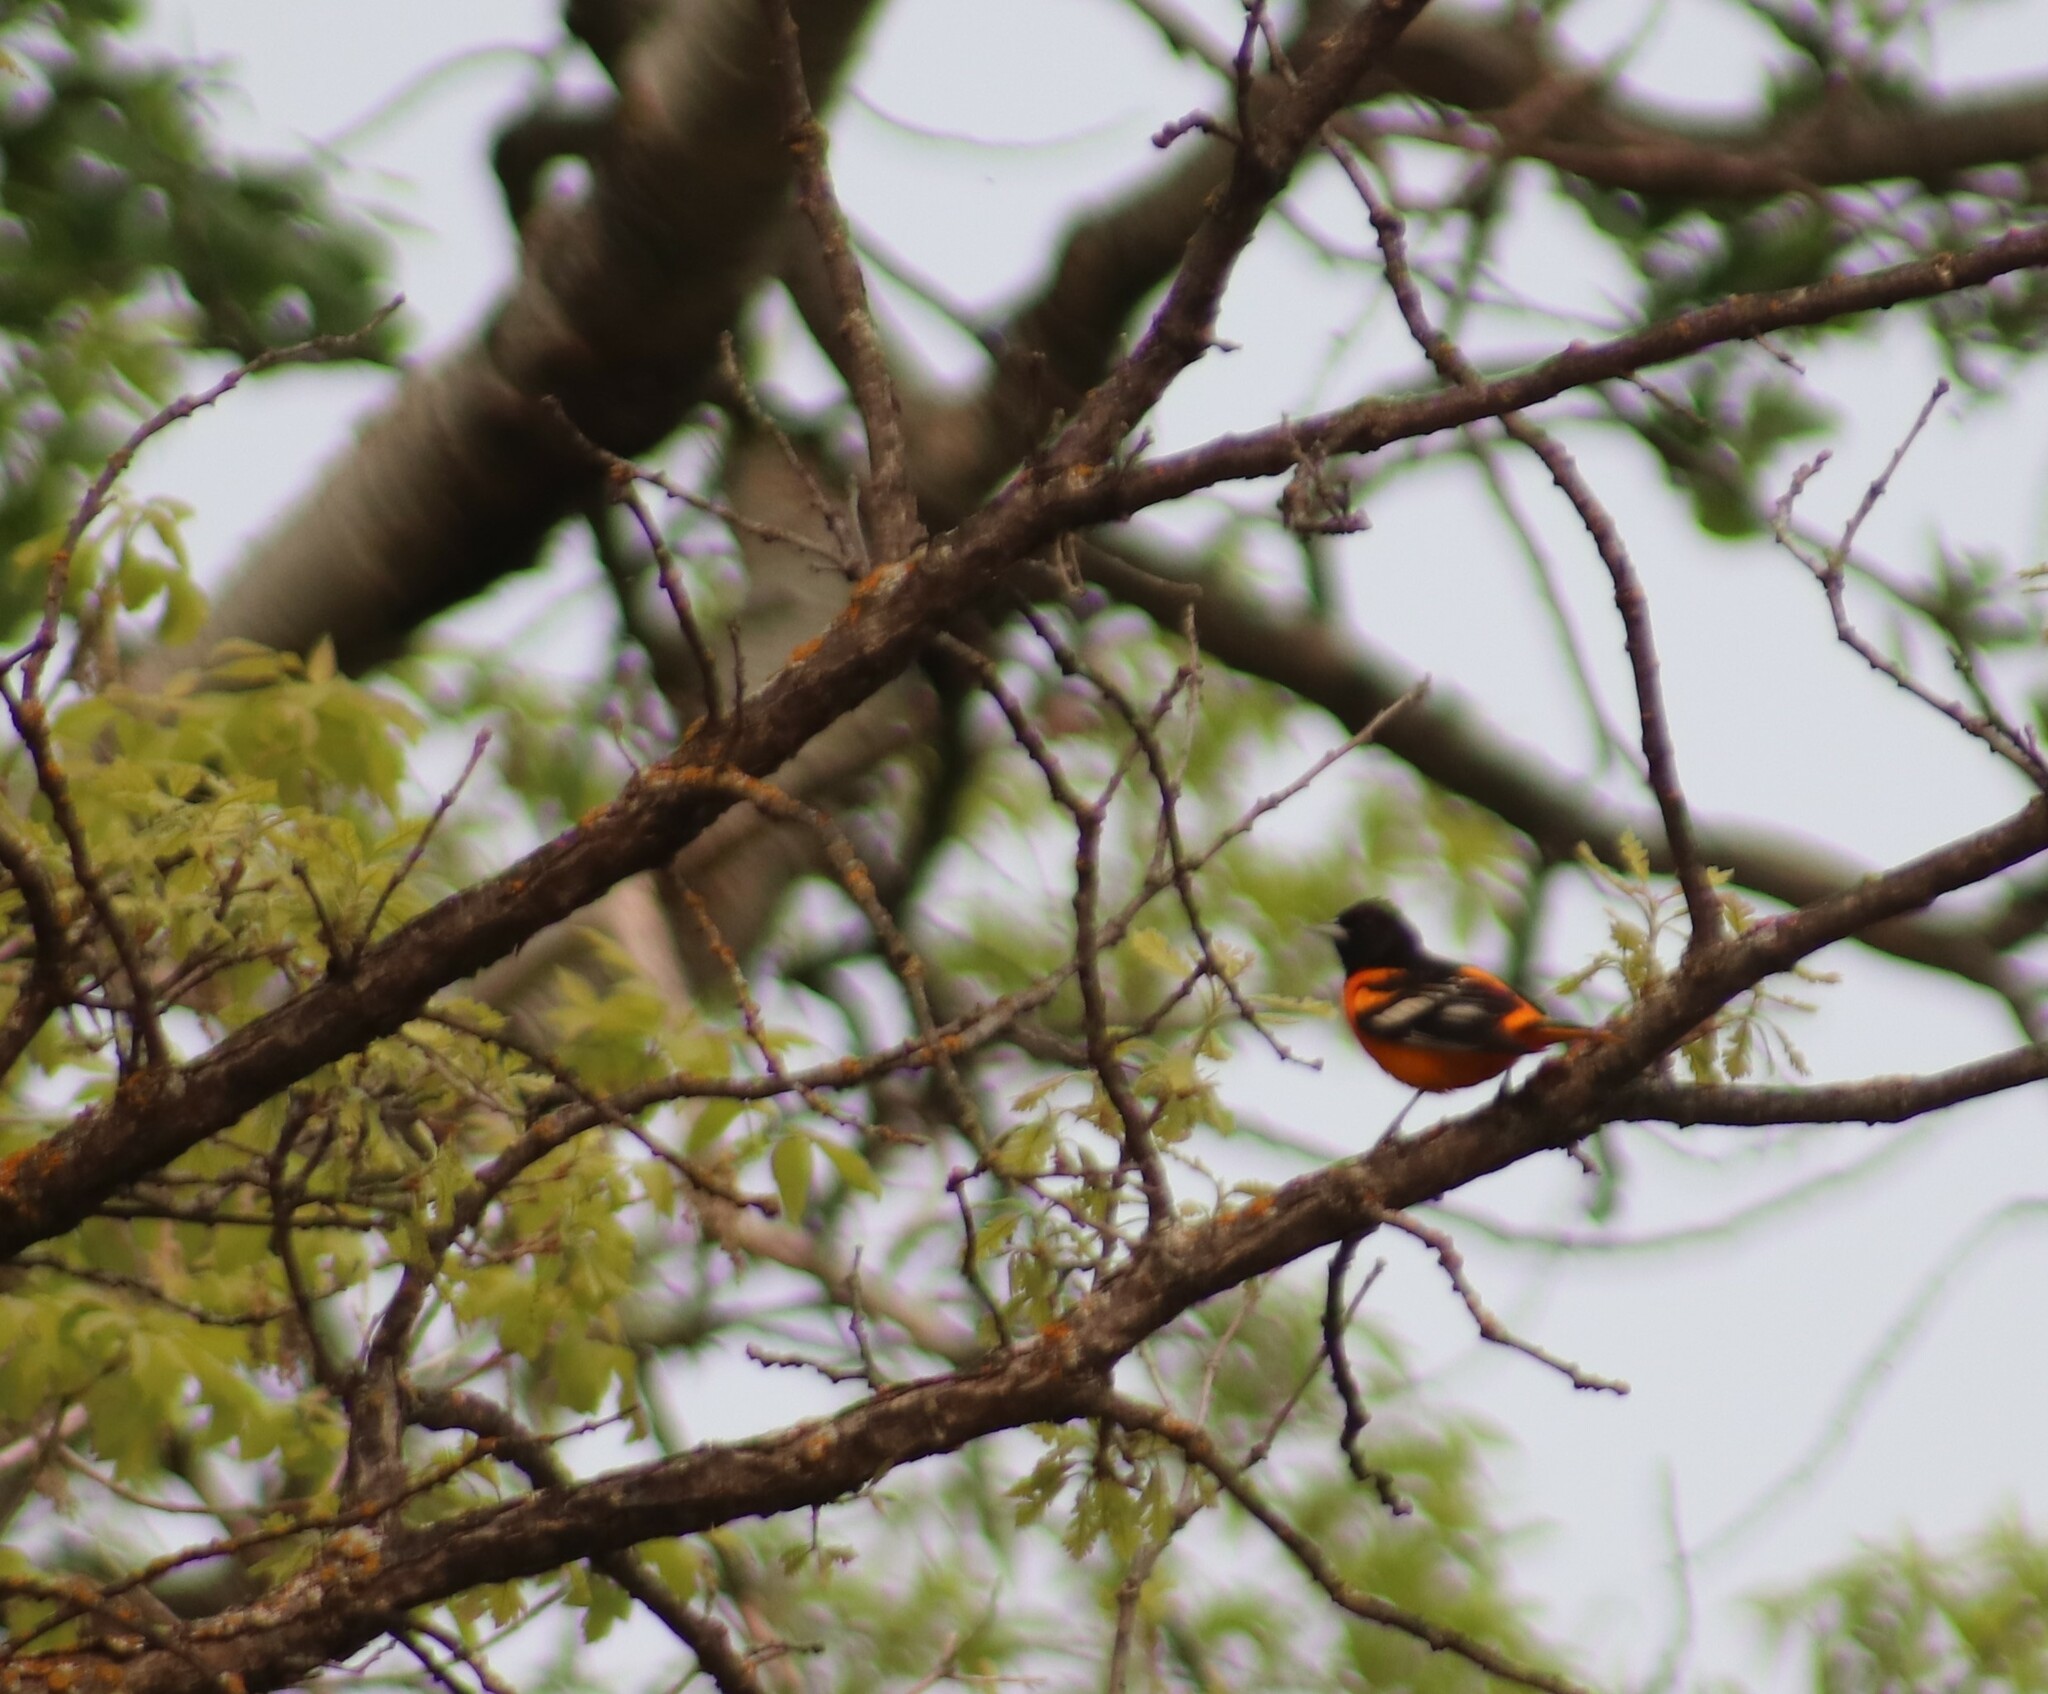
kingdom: Animalia
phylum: Chordata
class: Aves
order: Passeriformes
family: Icteridae
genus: Icterus
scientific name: Icterus galbula
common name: Baltimore oriole
